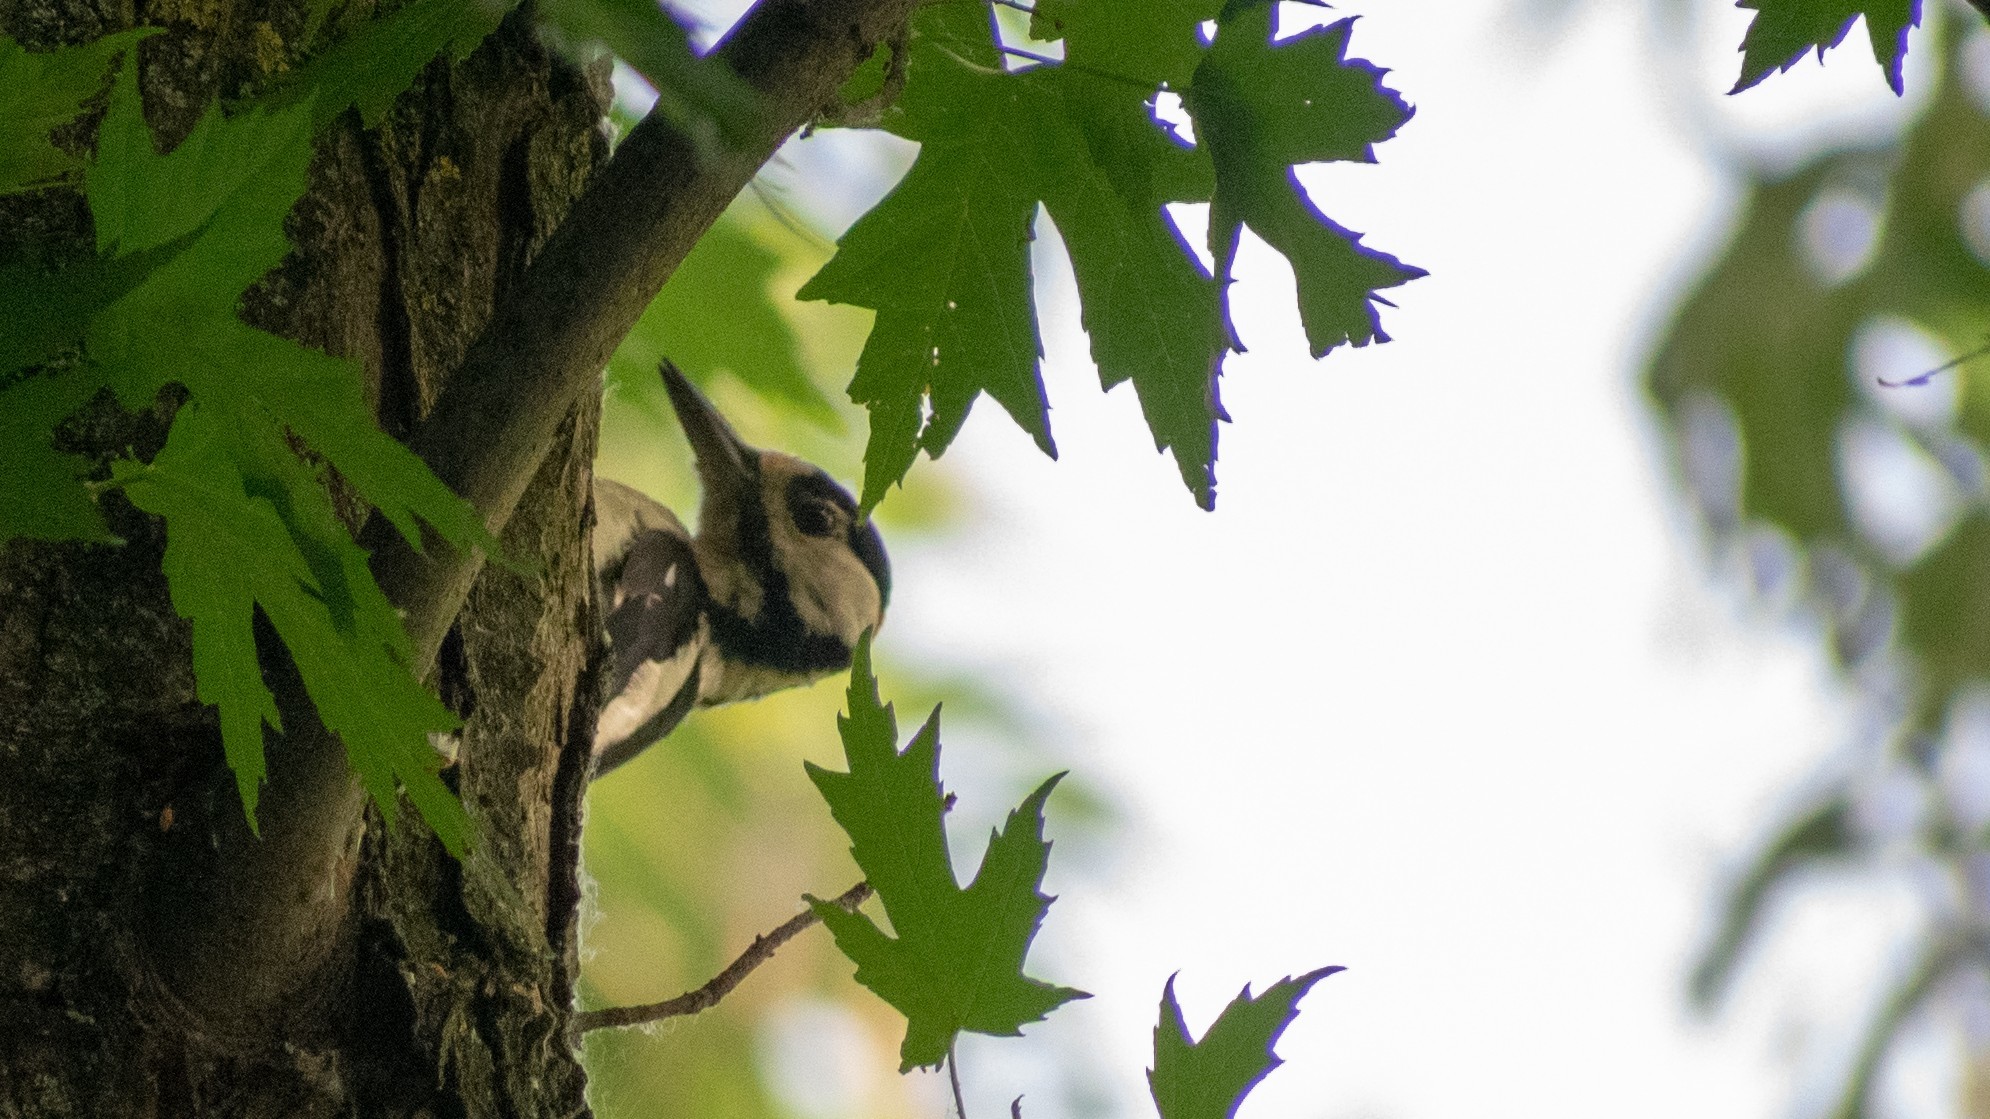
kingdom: Animalia
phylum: Chordata
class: Aves
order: Piciformes
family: Picidae
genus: Dendrocopos
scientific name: Dendrocopos major
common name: Great spotted woodpecker
